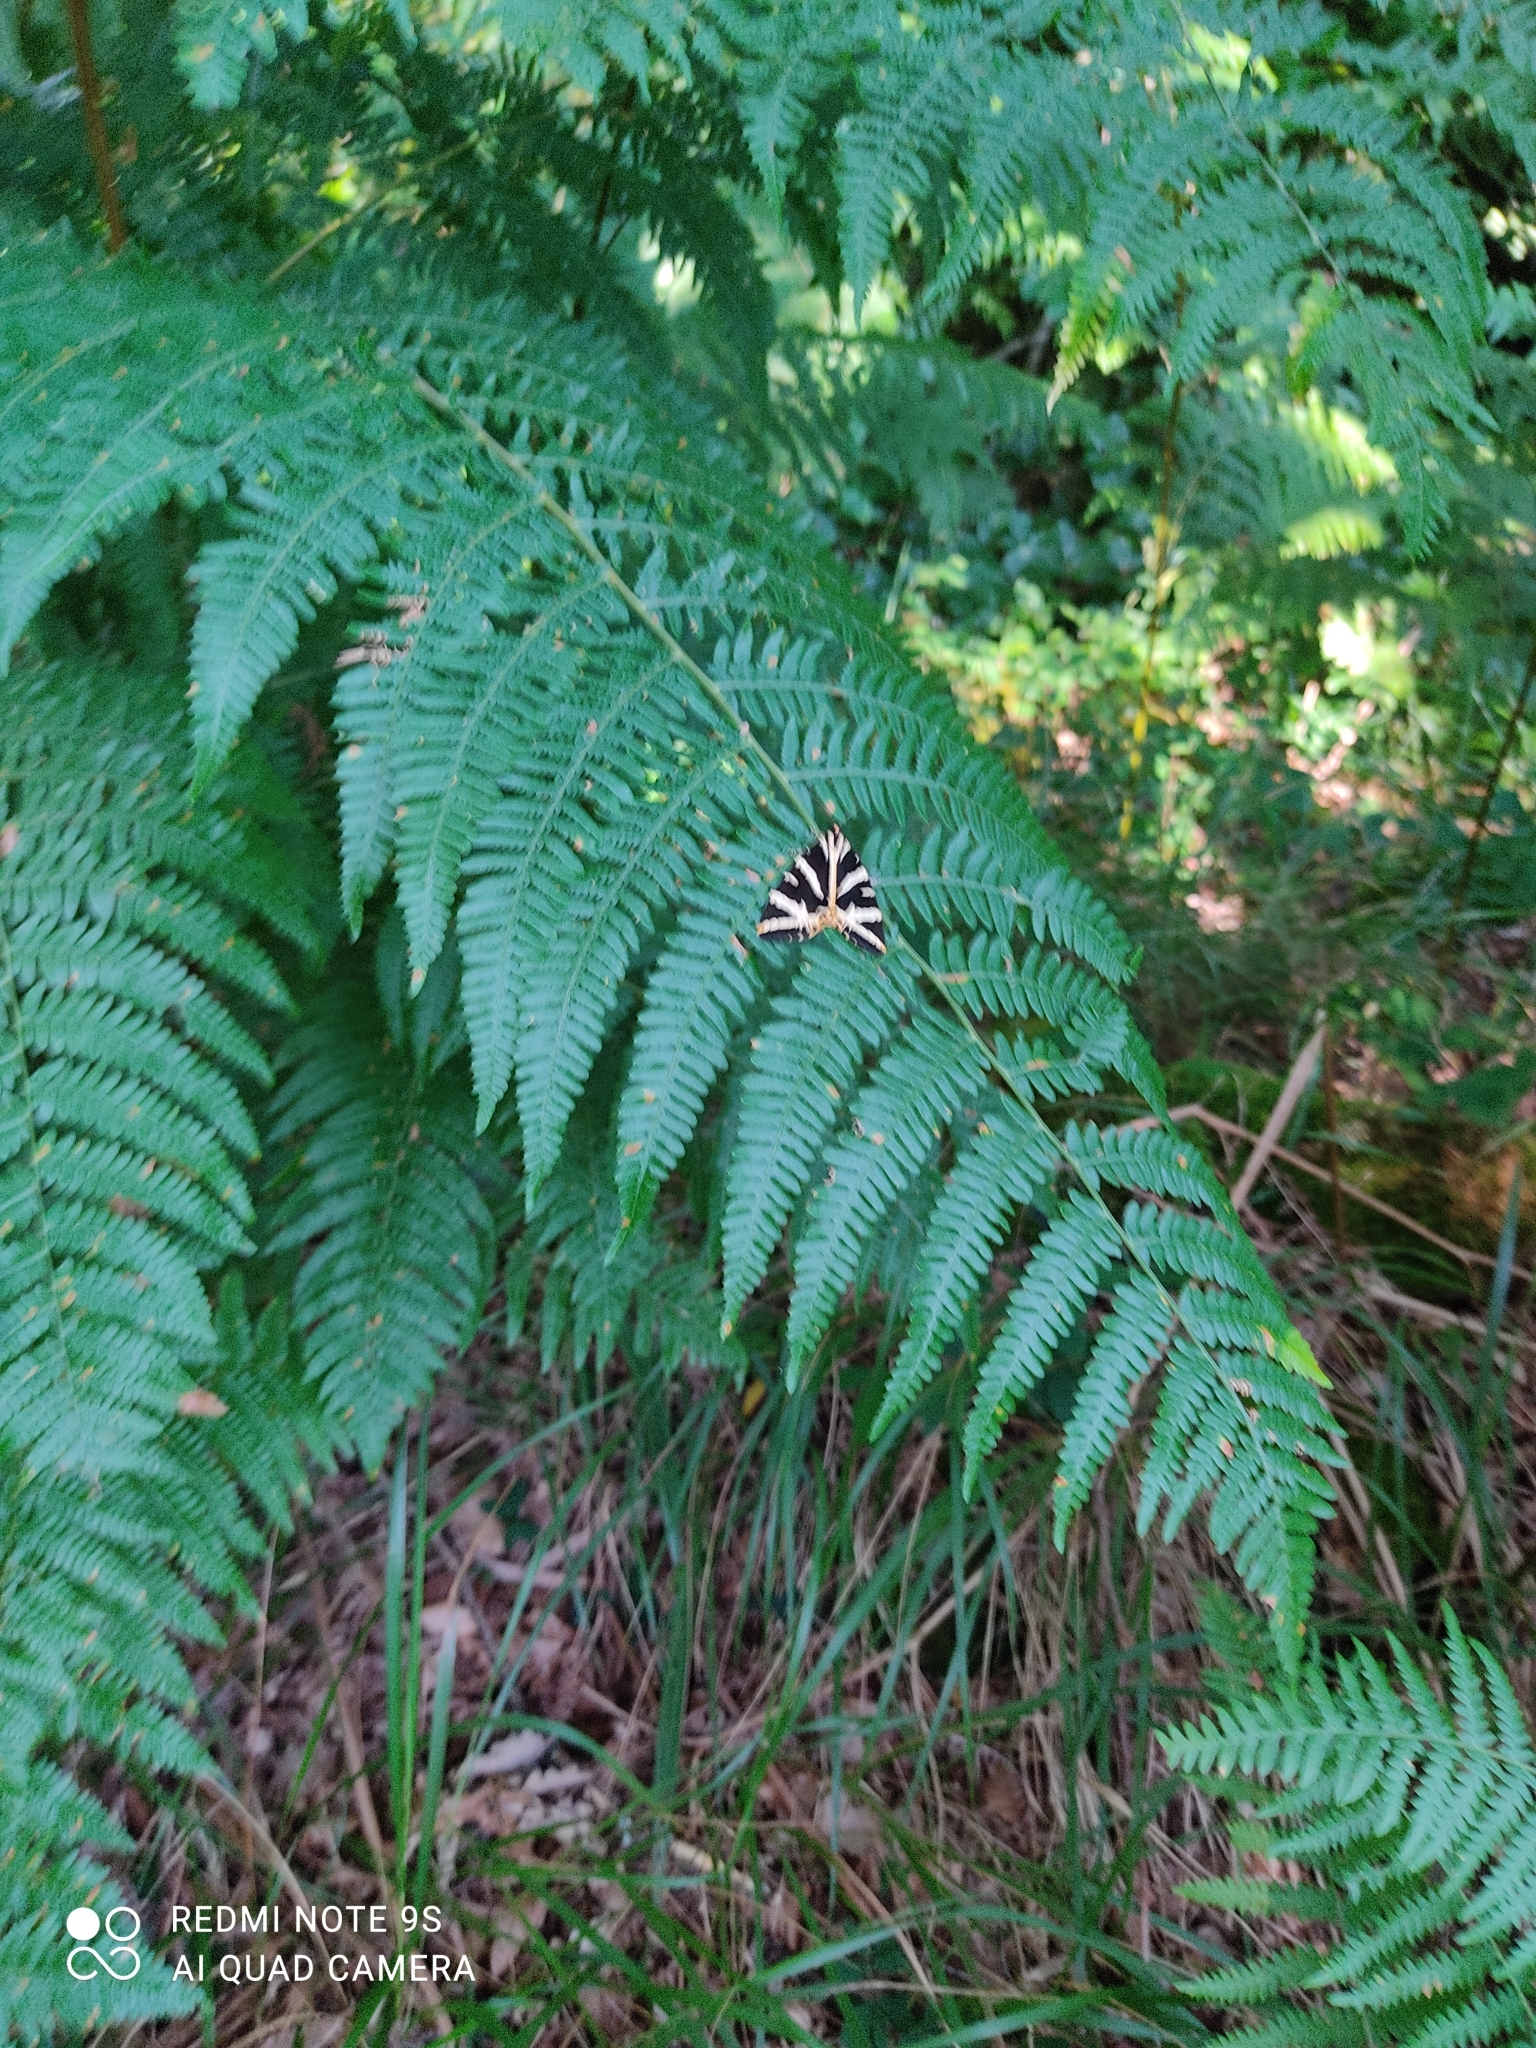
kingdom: Animalia
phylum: Arthropoda
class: Insecta
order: Lepidoptera
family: Erebidae
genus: Euplagia
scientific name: Euplagia quadripunctaria
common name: Jersey tiger
